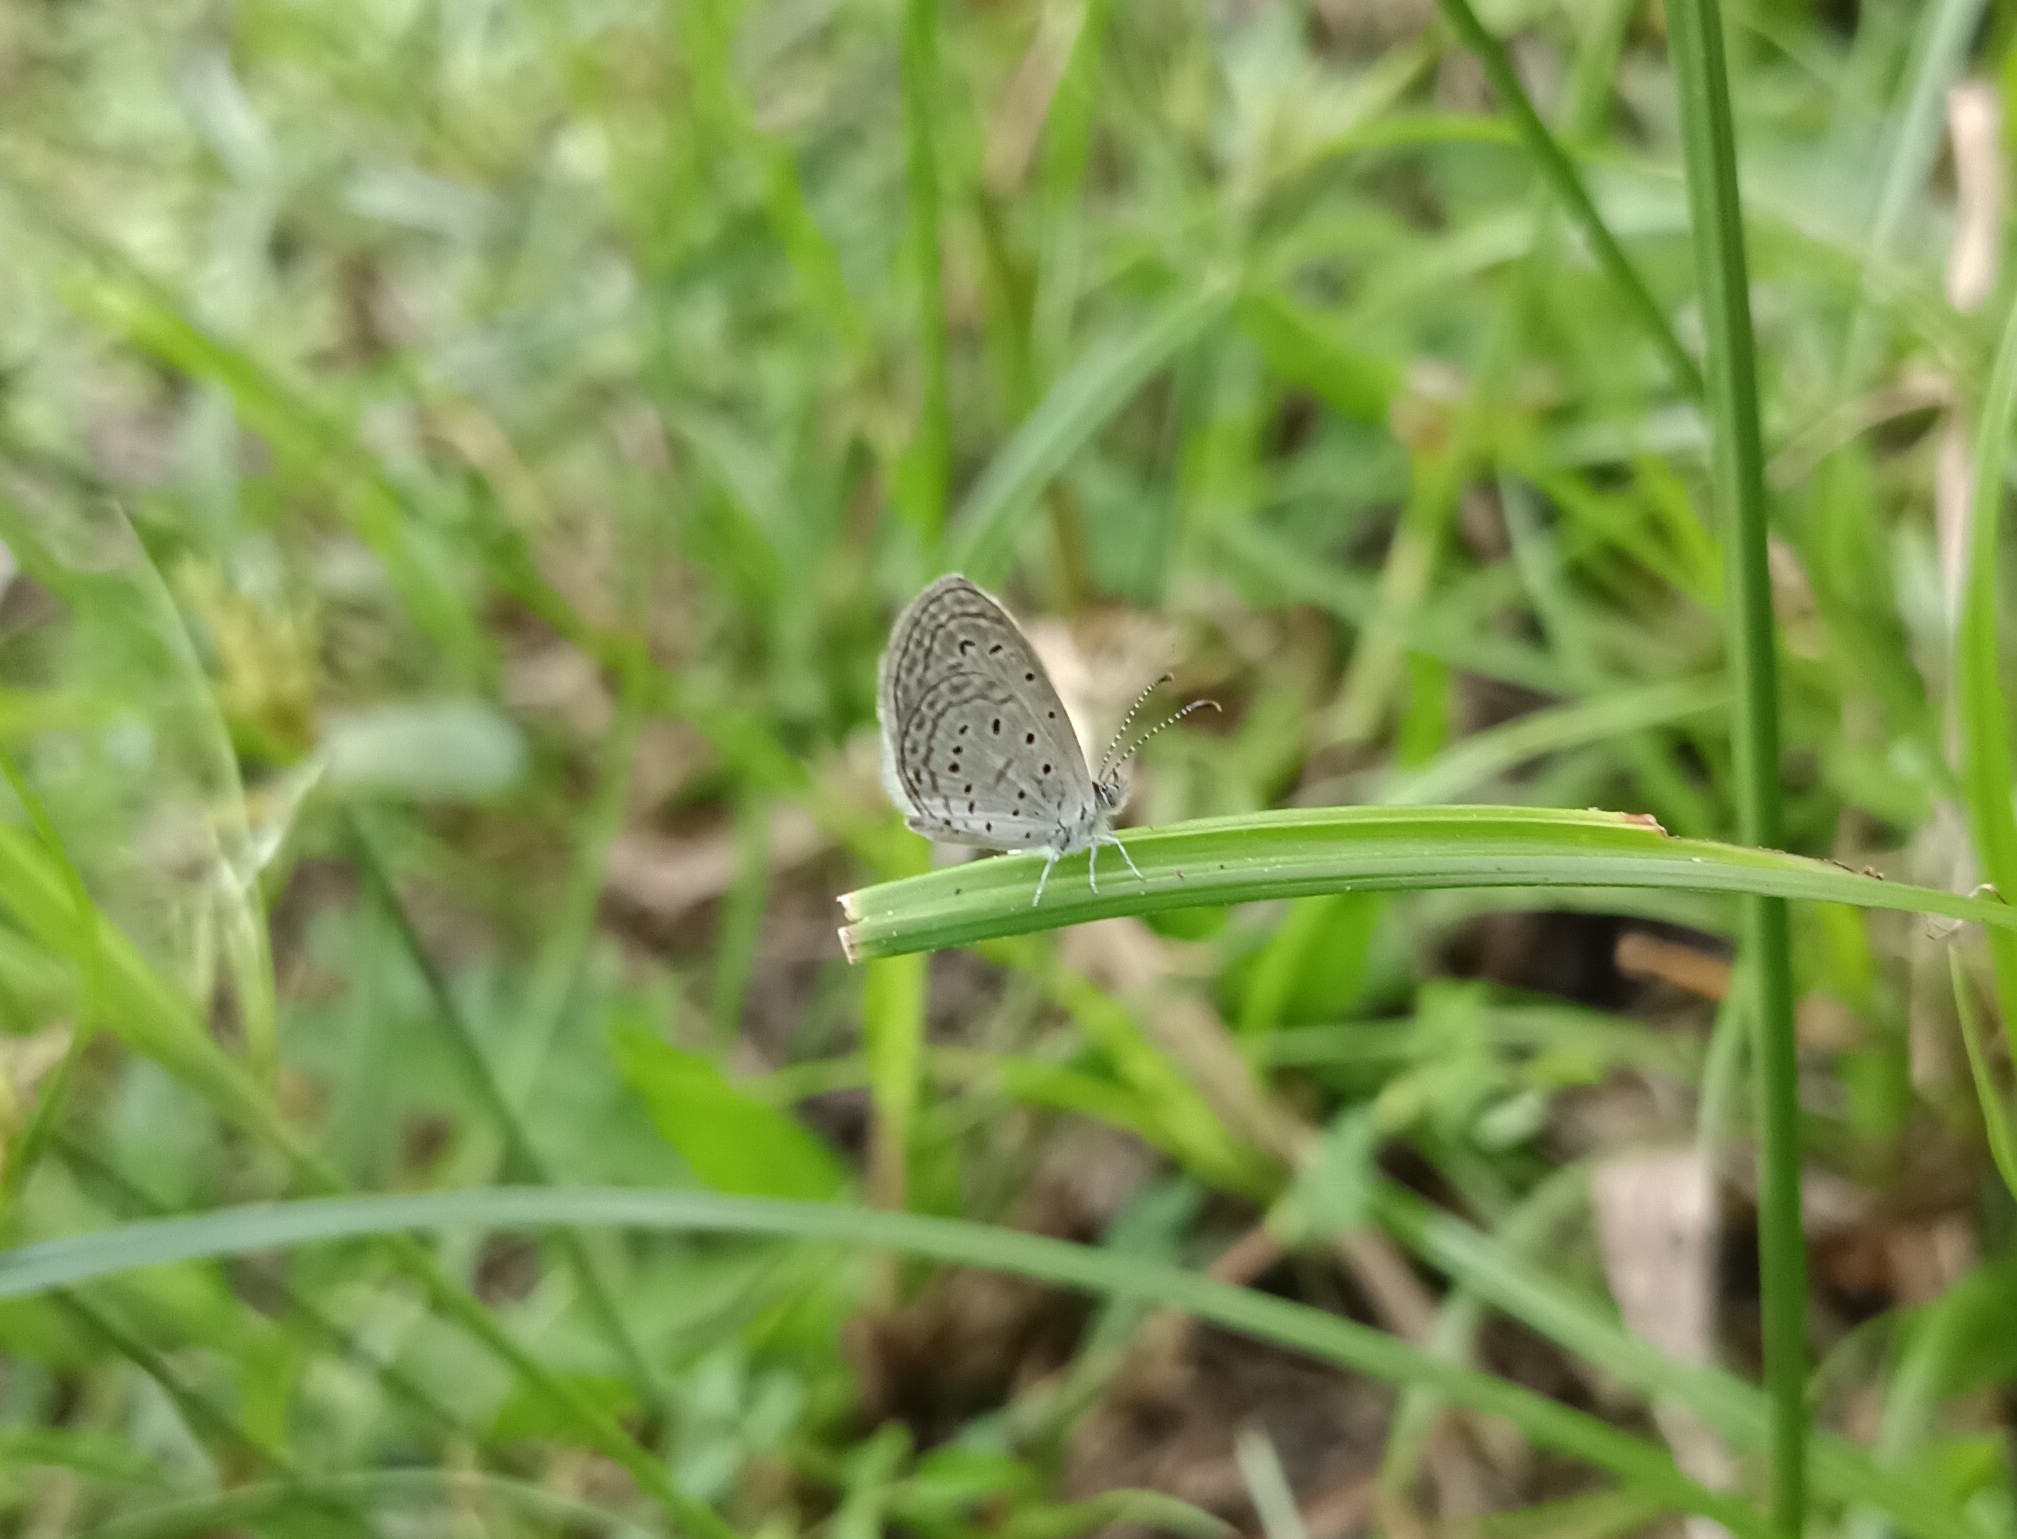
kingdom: Animalia
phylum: Arthropoda
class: Insecta
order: Lepidoptera
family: Lycaenidae
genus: Zizula
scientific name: Zizula hylax
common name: Gaika blue
